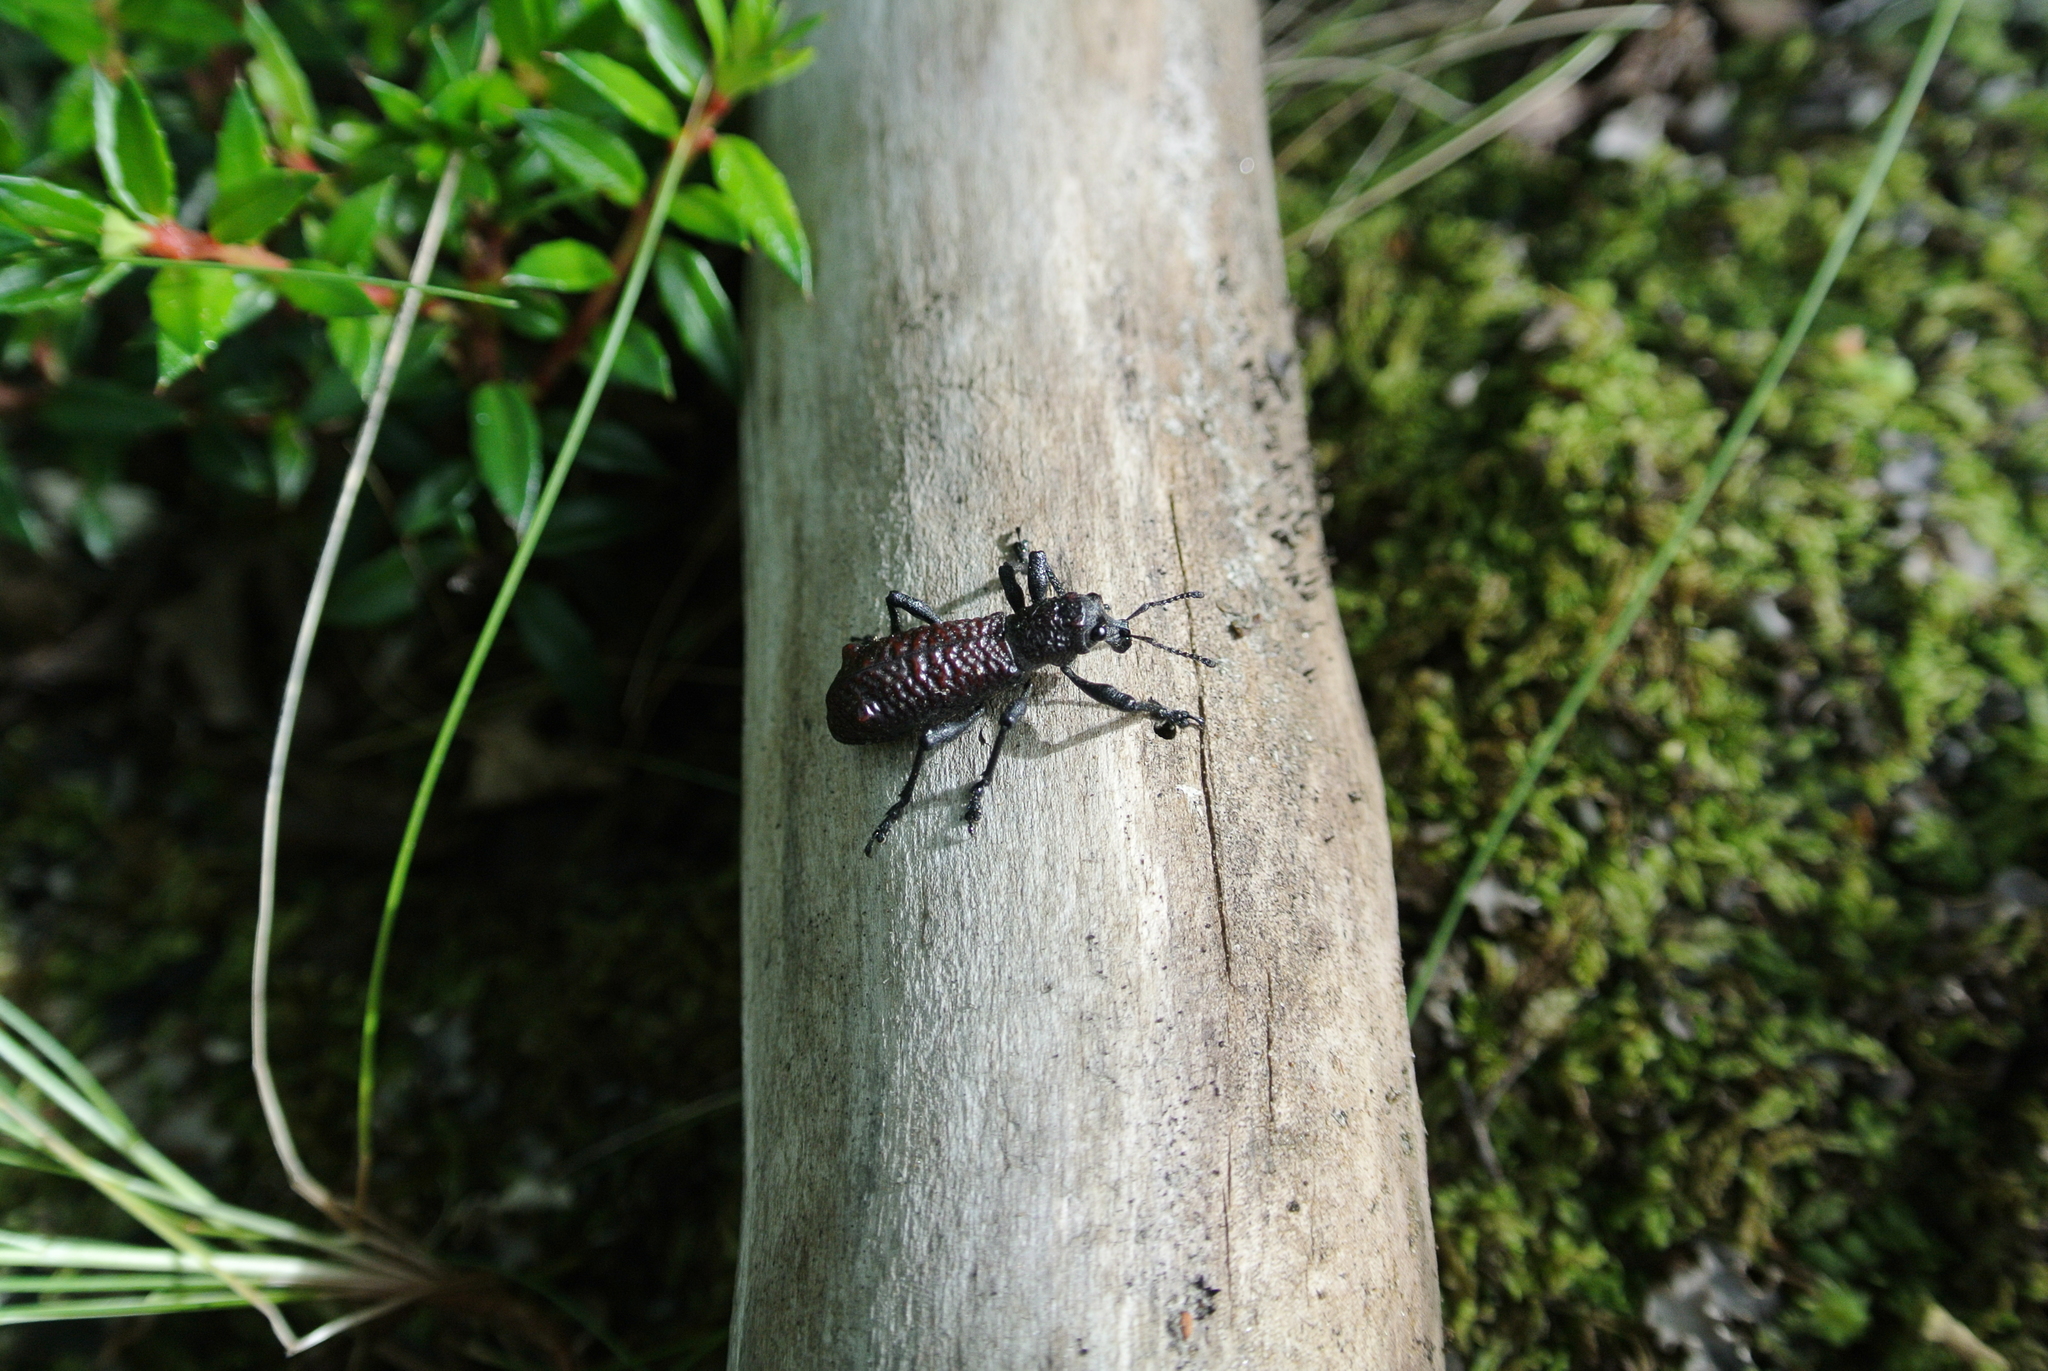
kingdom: Animalia
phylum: Arthropoda
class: Insecta
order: Coleoptera
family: Curculionidae
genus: Aegorhinus
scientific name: Aegorhinus vitulus
